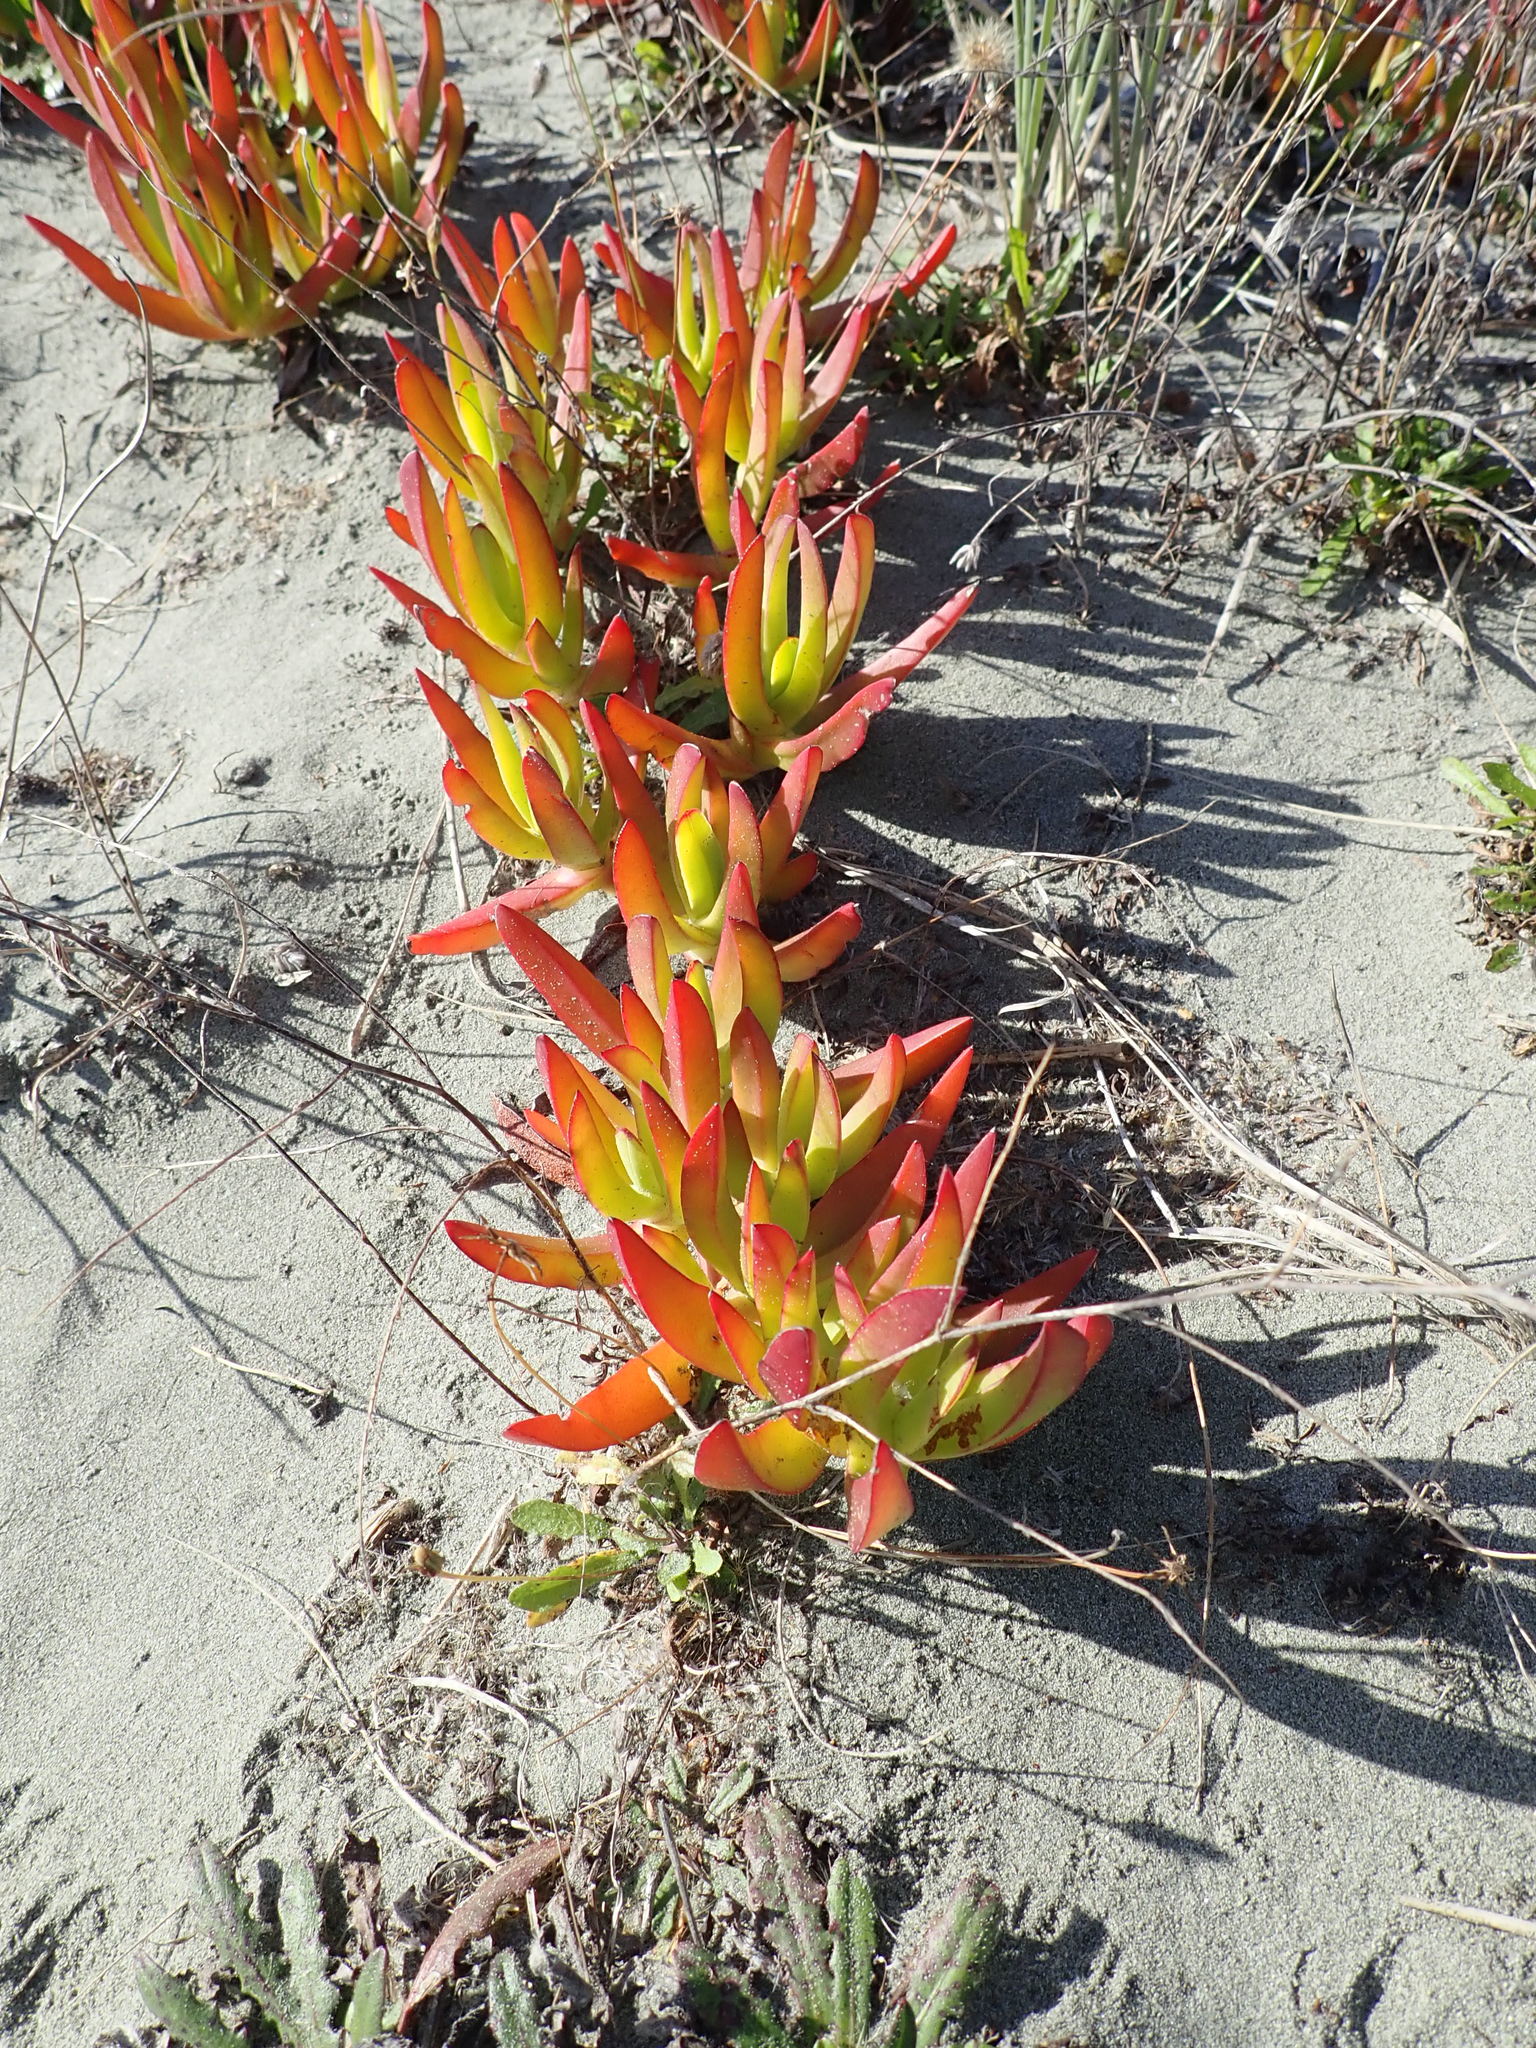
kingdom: Plantae
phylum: Tracheophyta
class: Magnoliopsida
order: Caryophyllales
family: Aizoaceae
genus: Carpobrotus
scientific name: Carpobrotus
